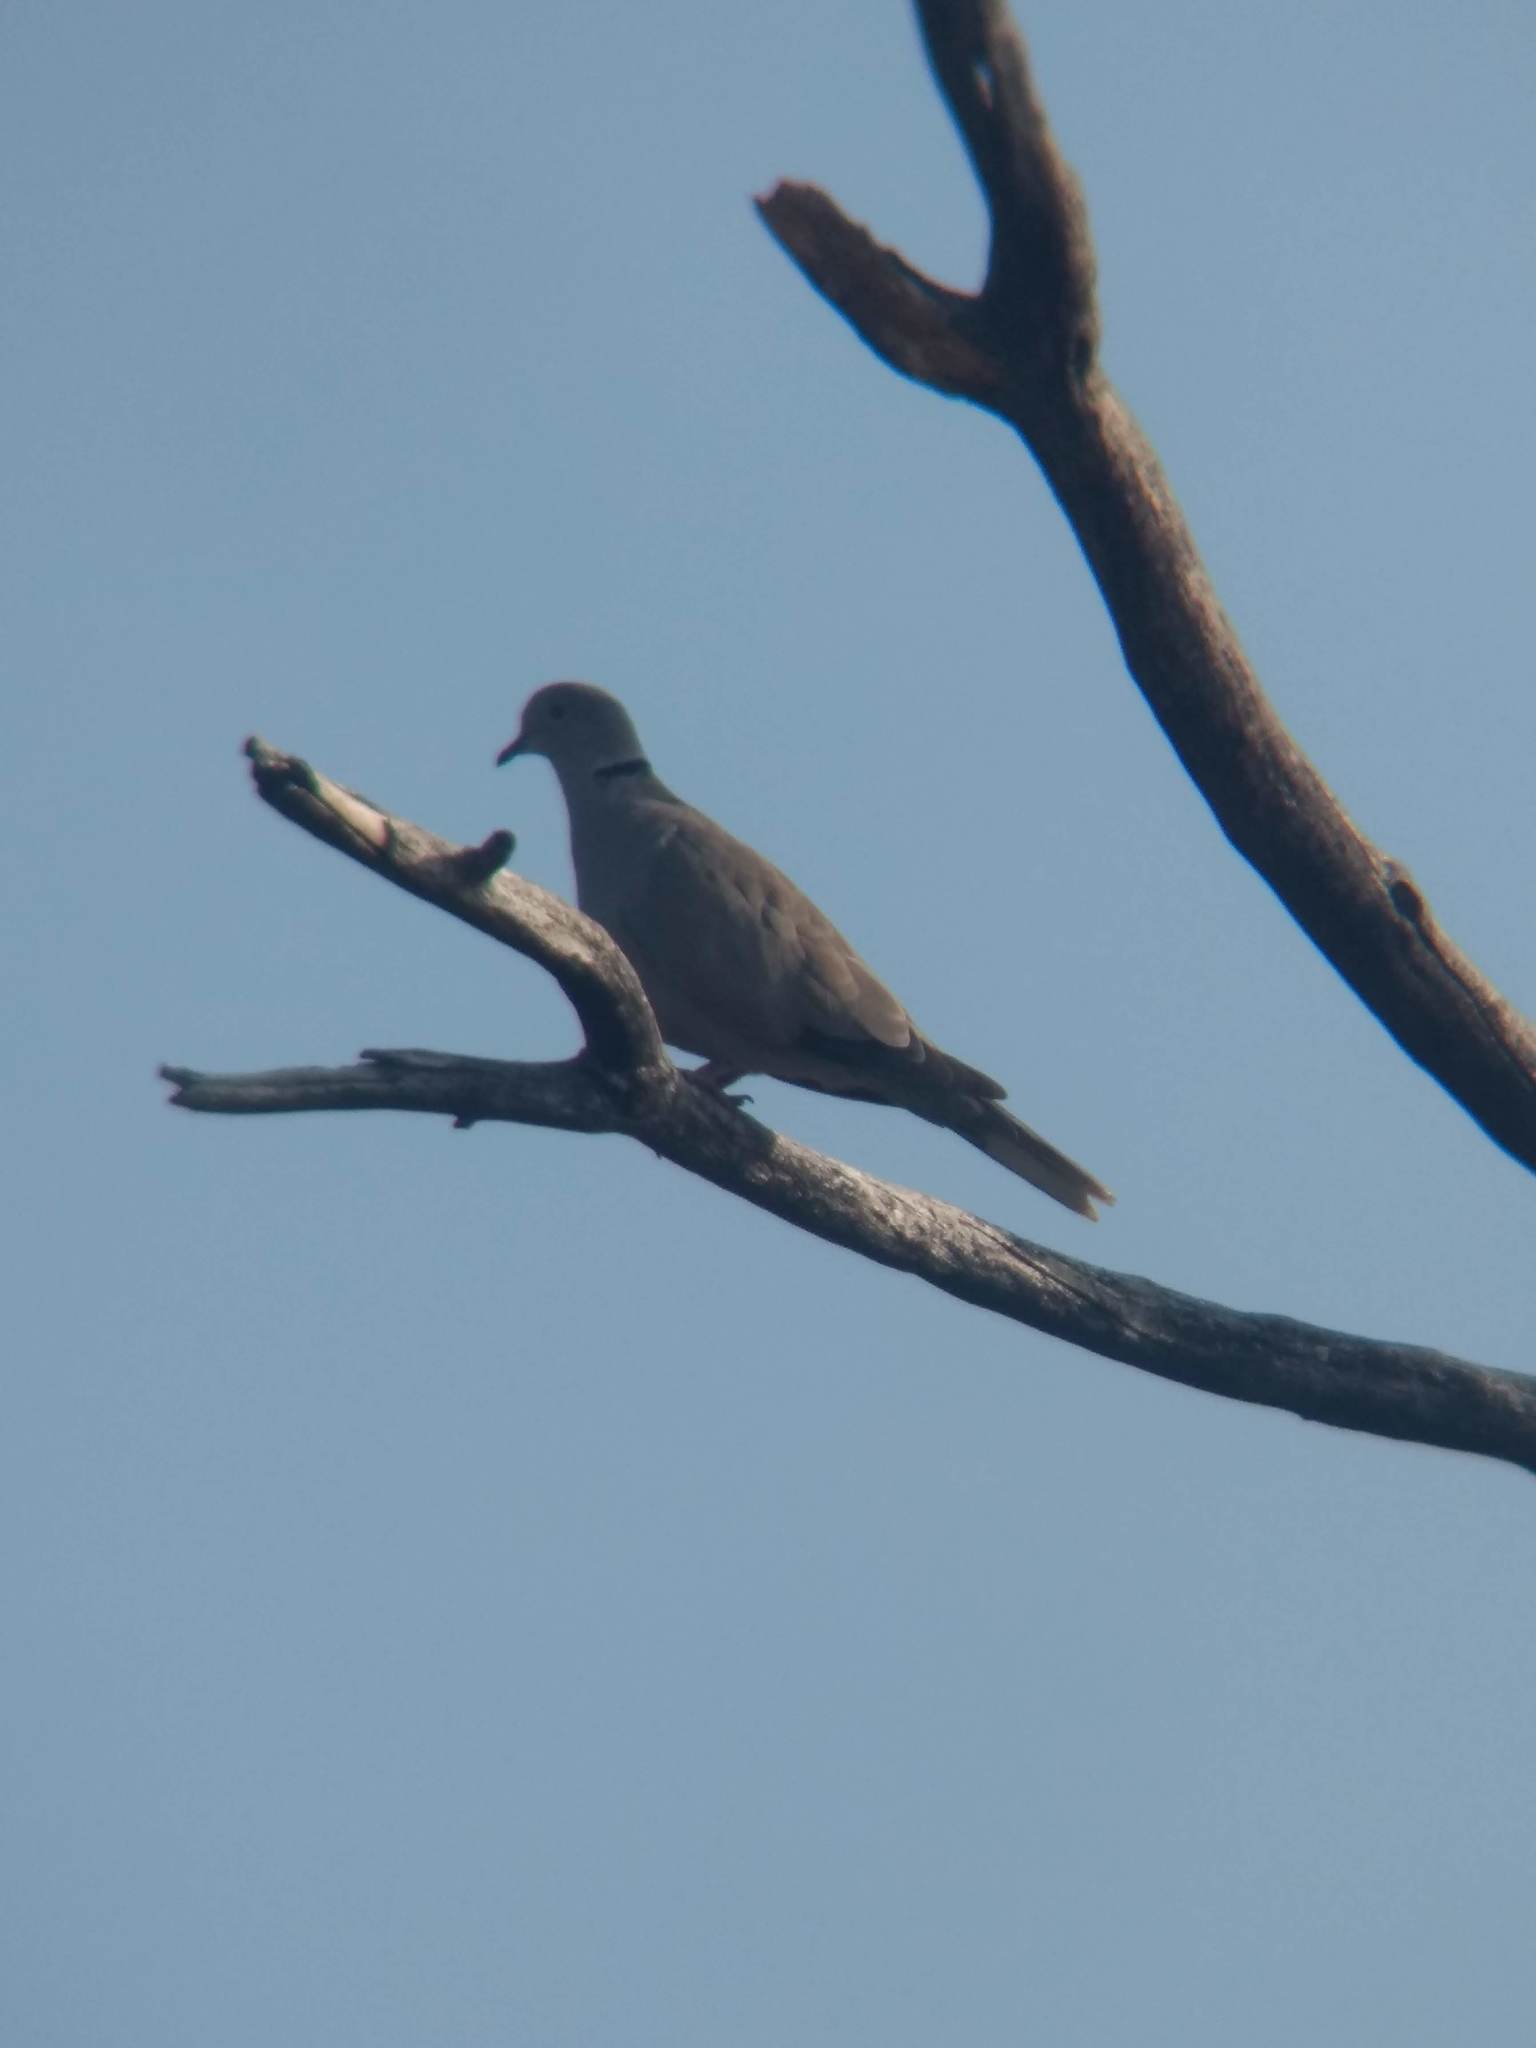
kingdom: Animalia
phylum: Chordata
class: Aves
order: Columbiformes
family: Columbidae
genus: Streptopelia
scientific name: Streptopelia decaocto
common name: Eurasian collared dove
